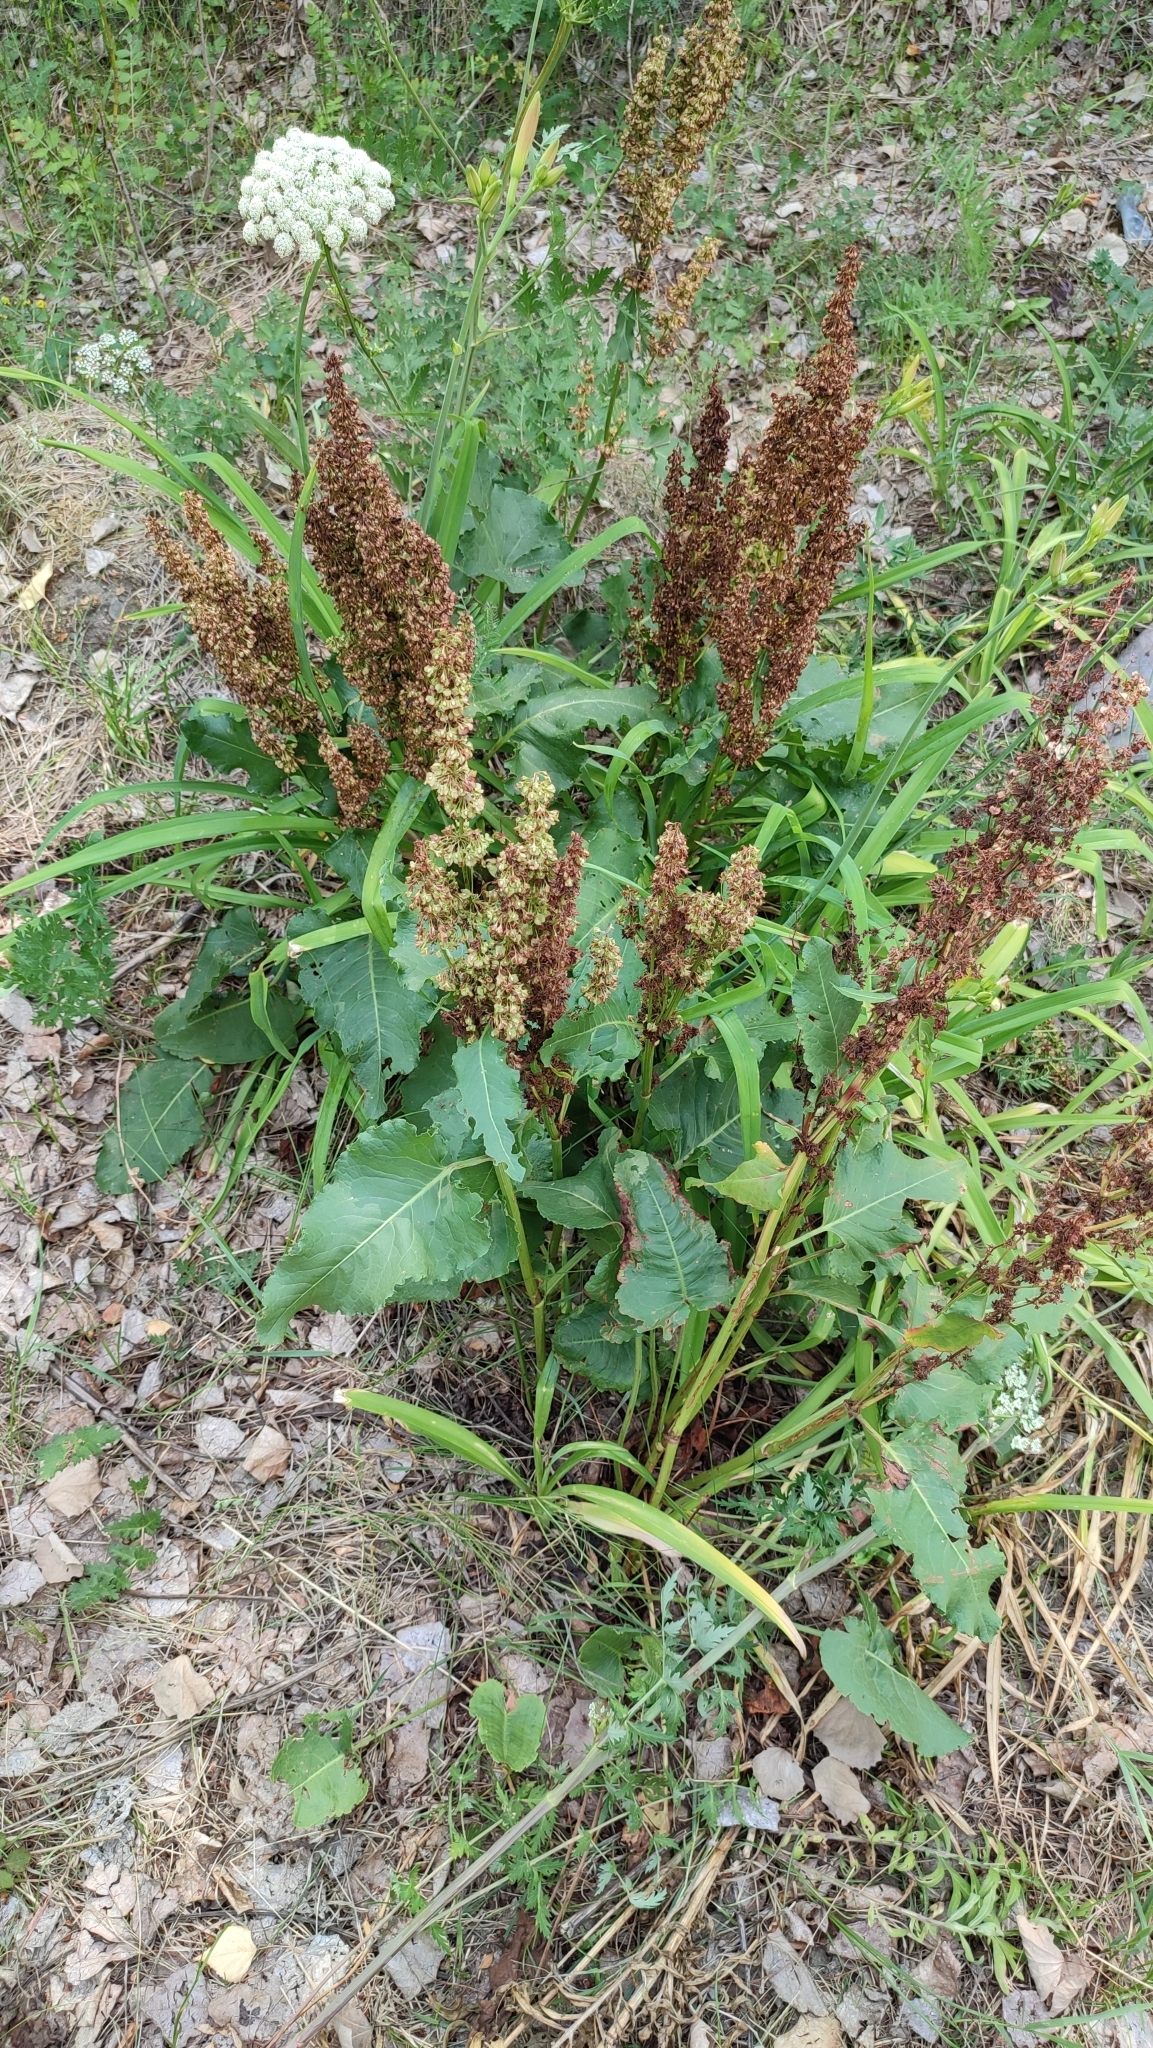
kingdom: Plantae
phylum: Tracheophyta
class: Magnoliopsida
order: Caryophyllales
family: Polygonaceae
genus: Rumex
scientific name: Rumex confertus
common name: Russian dock
